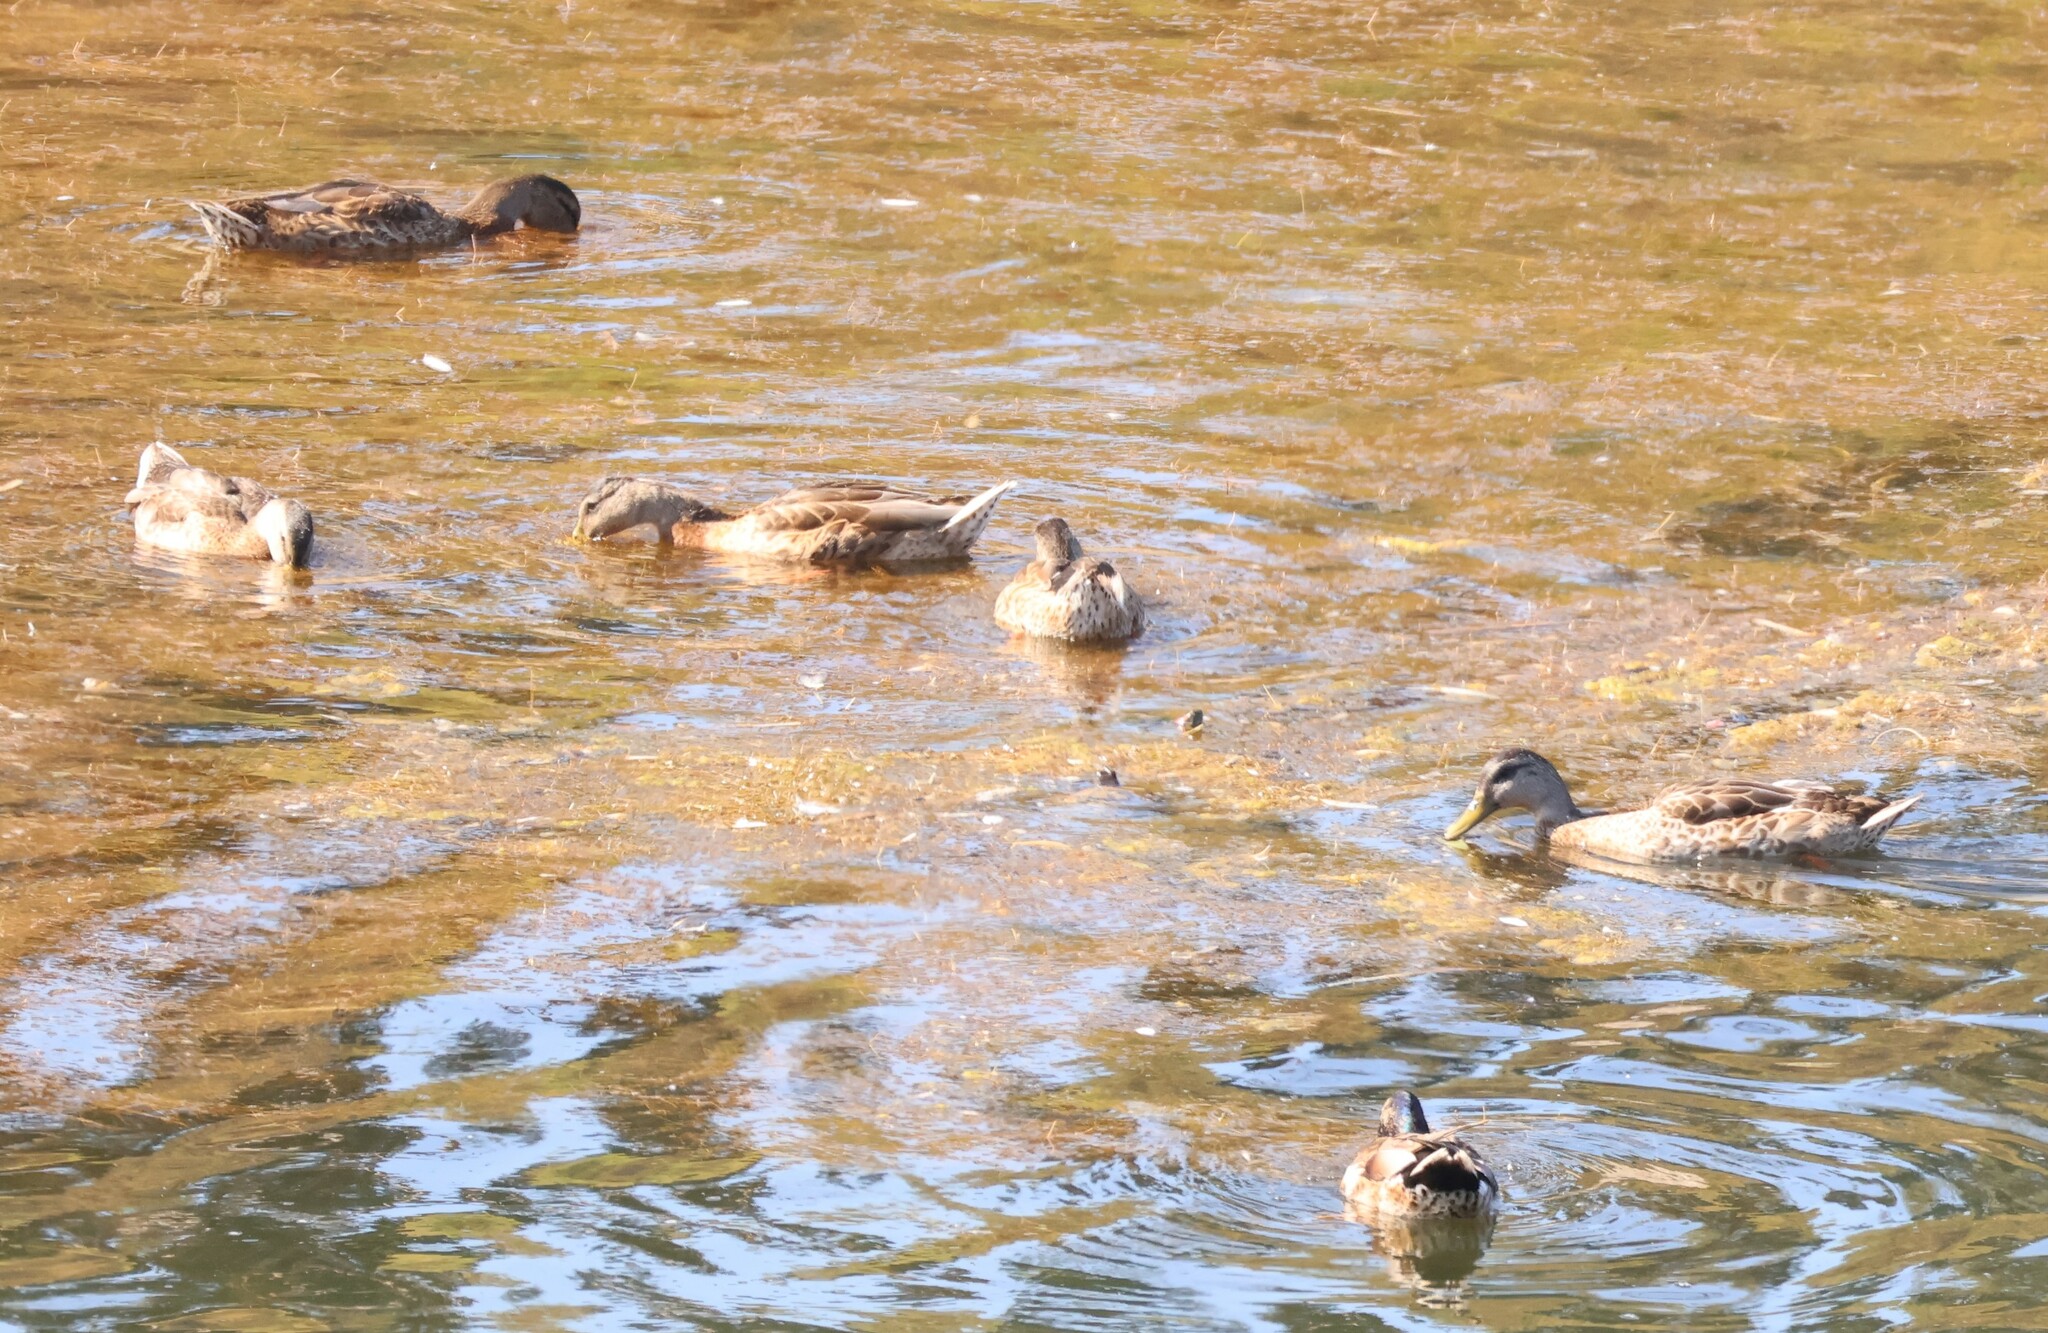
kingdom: Animalia
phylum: Chordata
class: Aves
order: Anseriformes
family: Anatidae
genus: Anas
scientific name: Anas platyrhynchos
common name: Mallard
